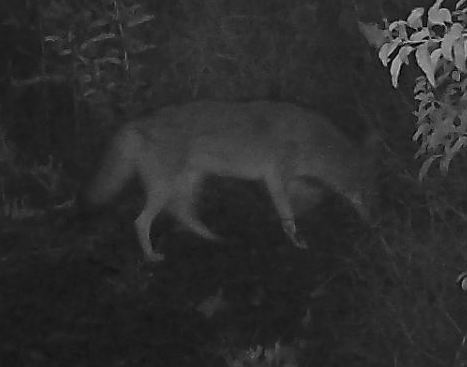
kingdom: Animalia
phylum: Chordata
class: Mammalia
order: Carnivora
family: Canidae
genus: Canis
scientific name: Canis latrans
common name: Coyote
